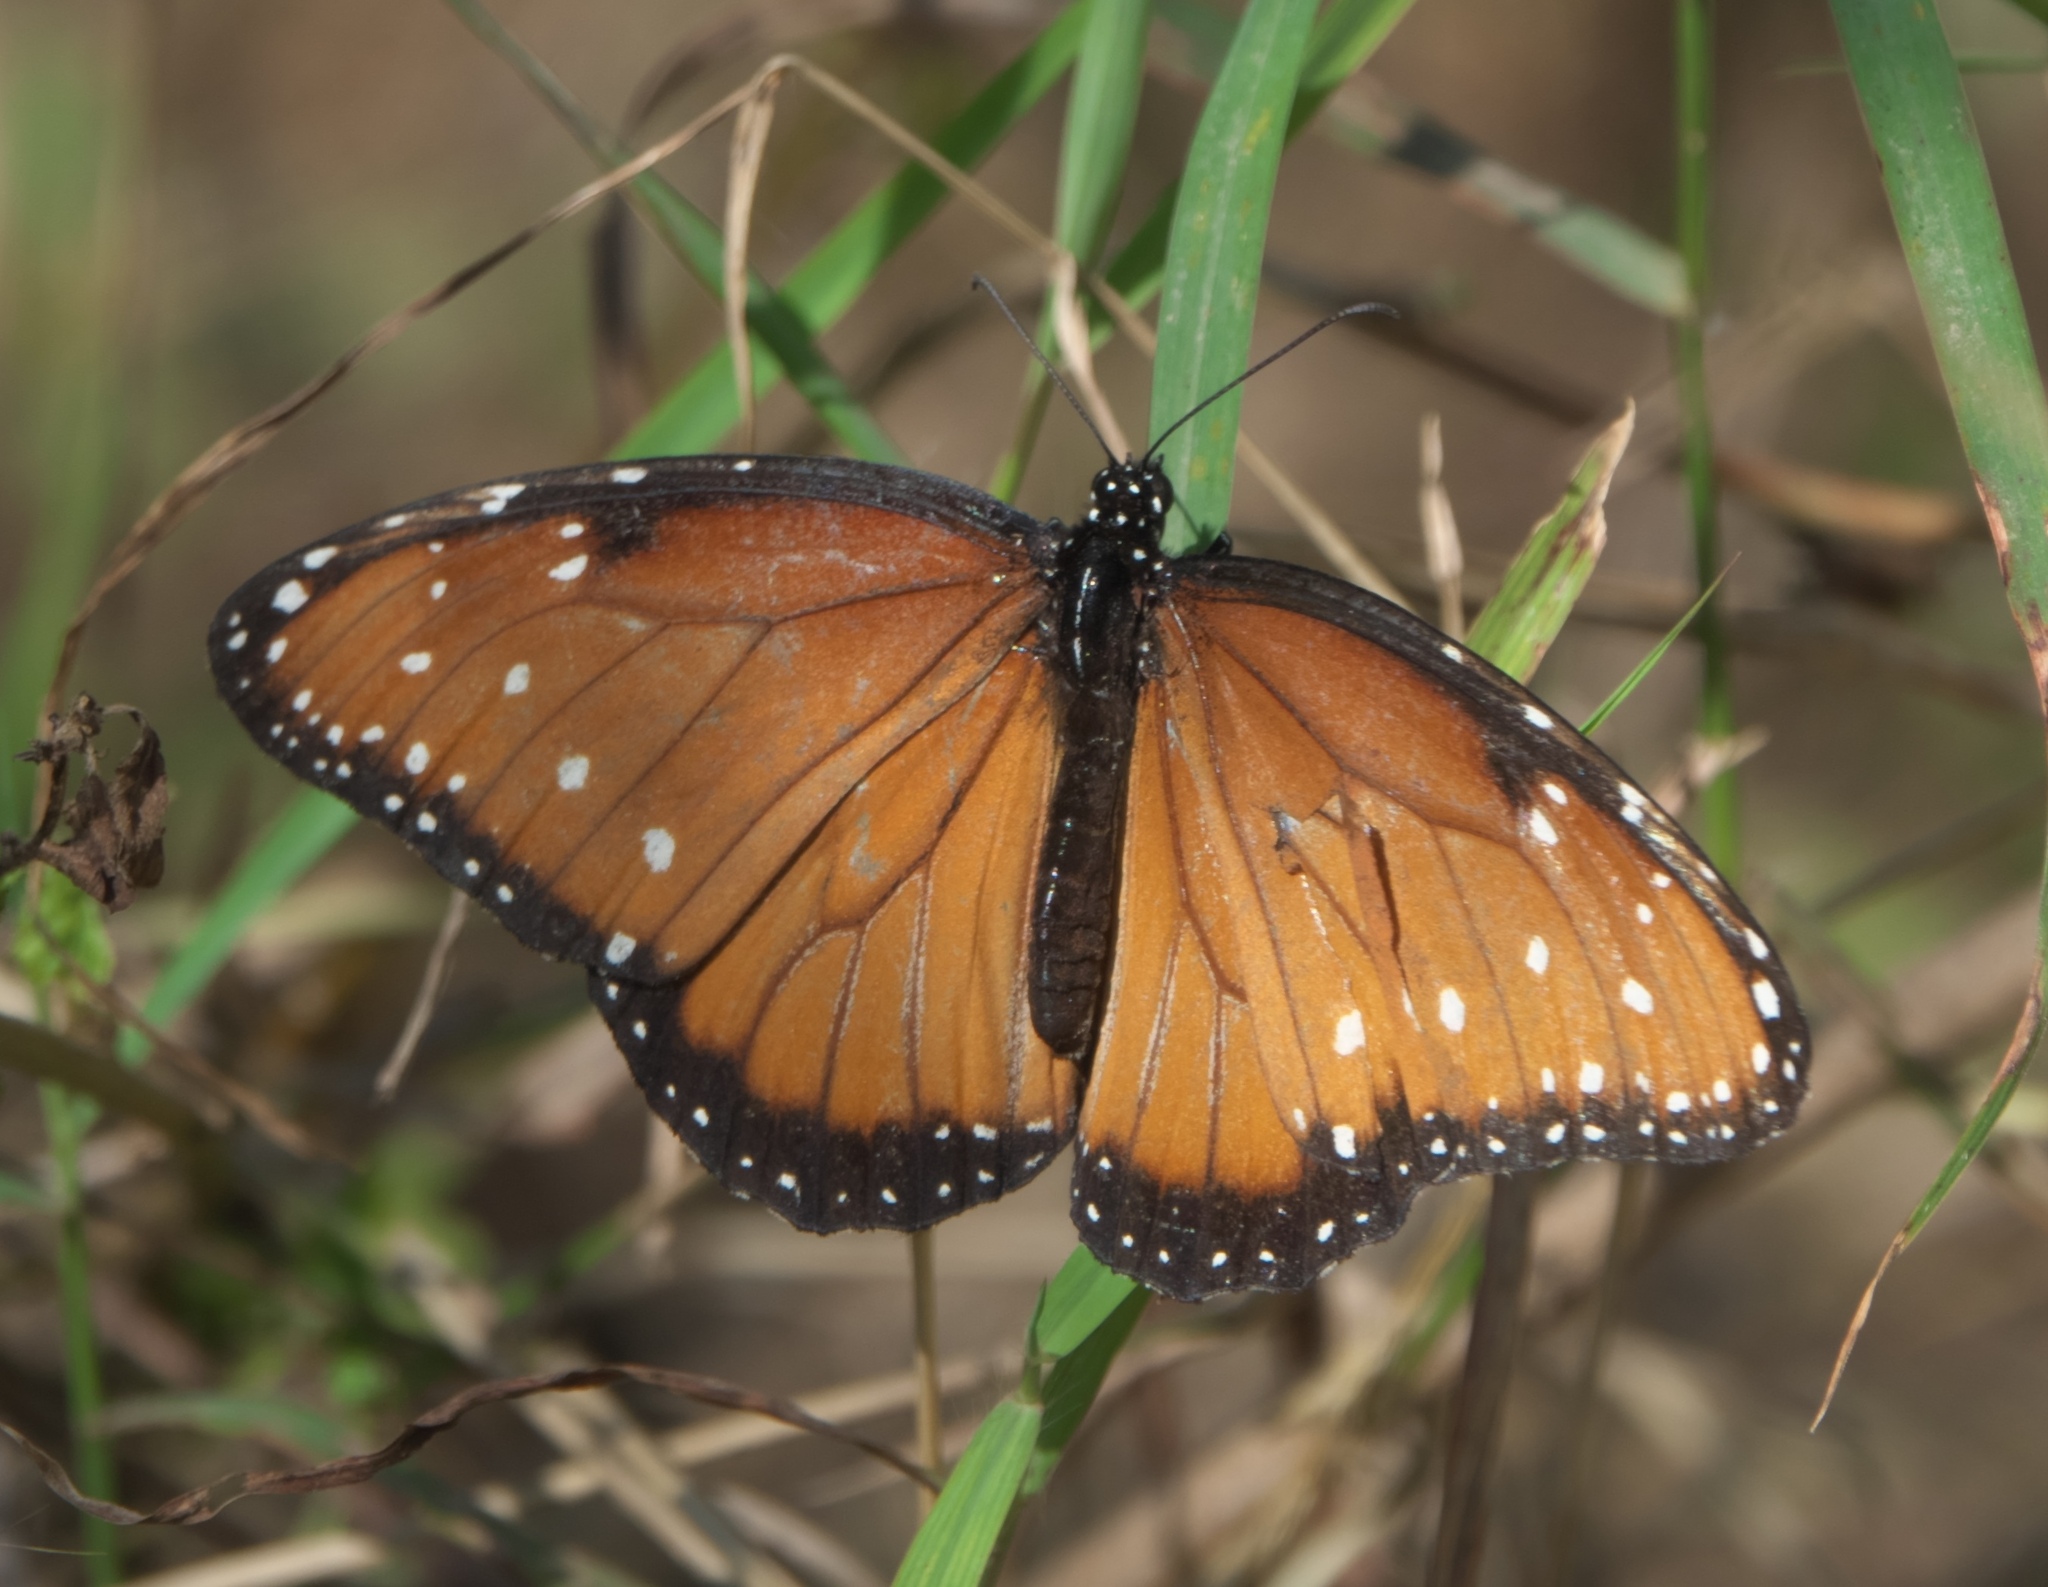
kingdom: Animalia
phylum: Arthropoda
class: Insecta
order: Lepidoptera
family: Nymphalidae
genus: Danaus
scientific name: Danaus gilippus
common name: Queen
